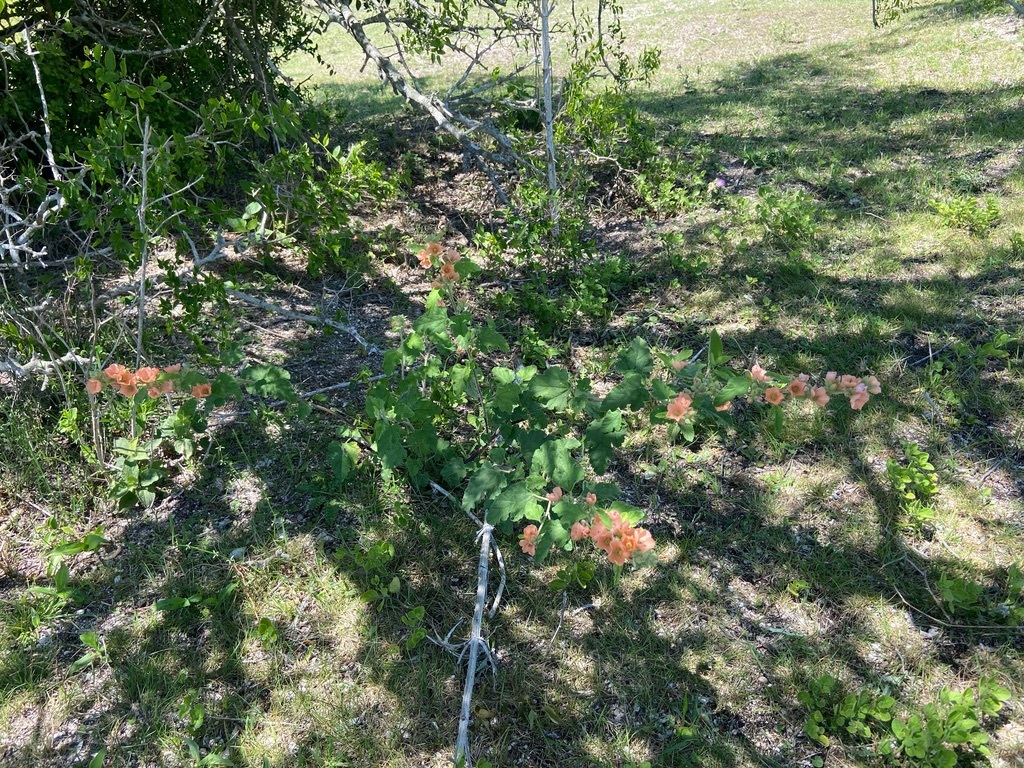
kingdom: Plantae
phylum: Tracheophyta
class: Magnoliopsida
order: Malvales
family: Malvaceae
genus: Sphaeralcea
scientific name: Sphaeralcea bonariensis
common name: Latin globemallow
